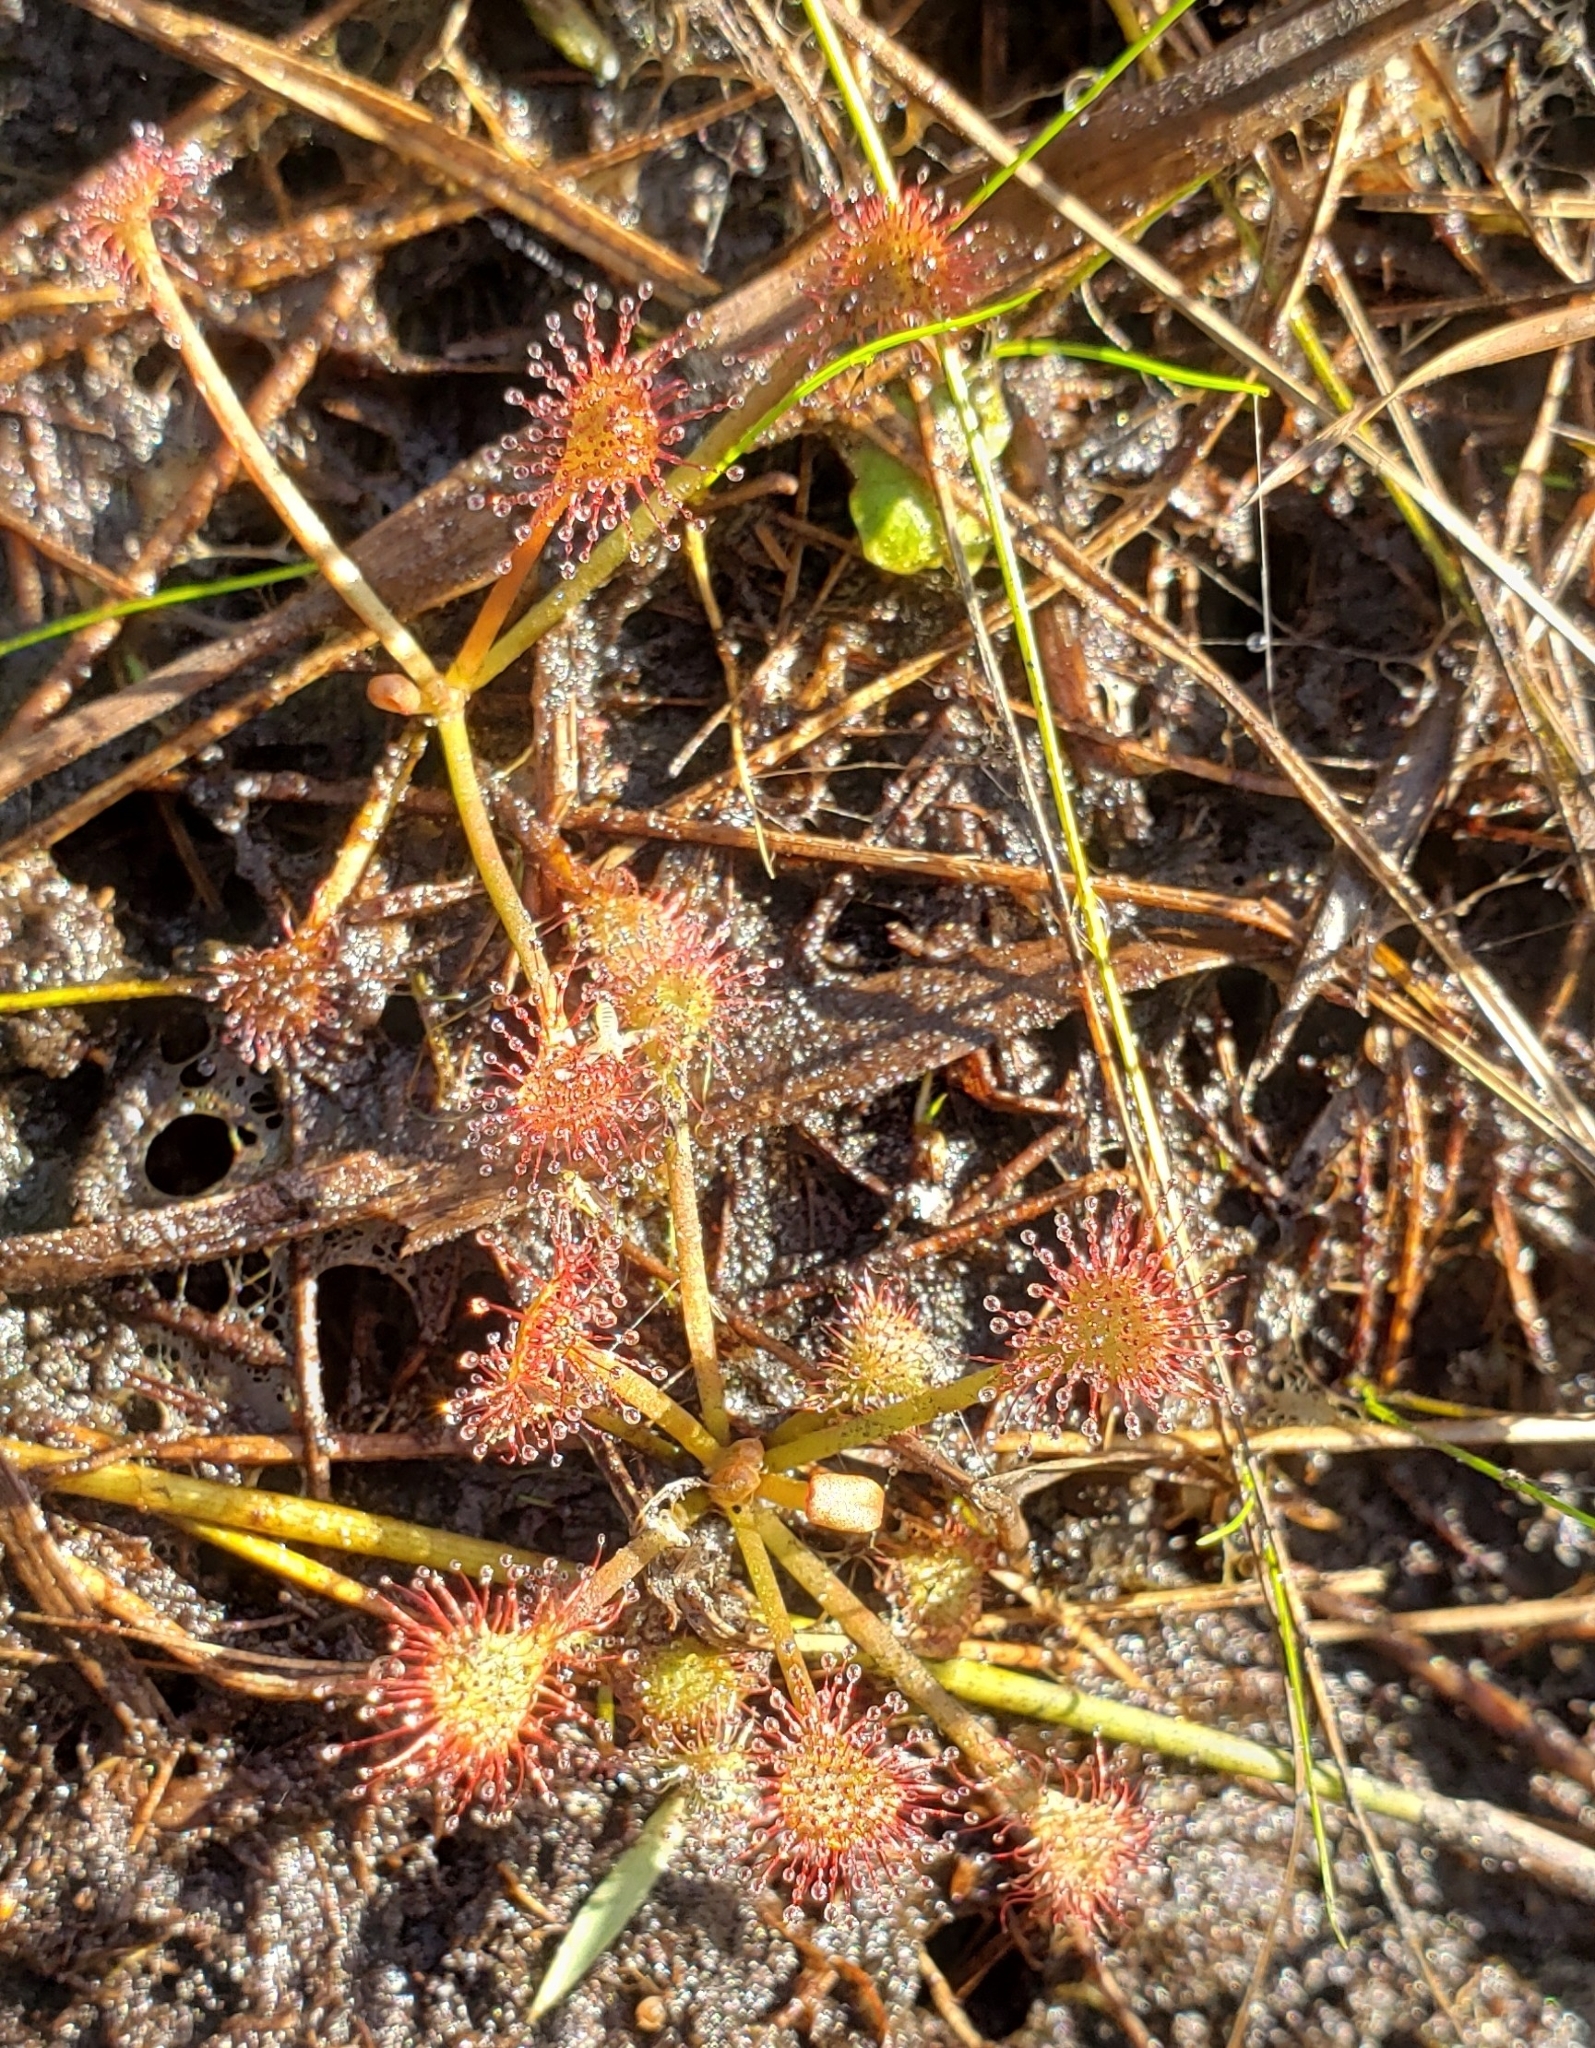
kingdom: Plantae
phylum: Tracheophyta
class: Magnoliopsida
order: Caryophyllales
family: Droseraceae
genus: Drosera
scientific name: Drosera capillaris
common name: Pink sundew
